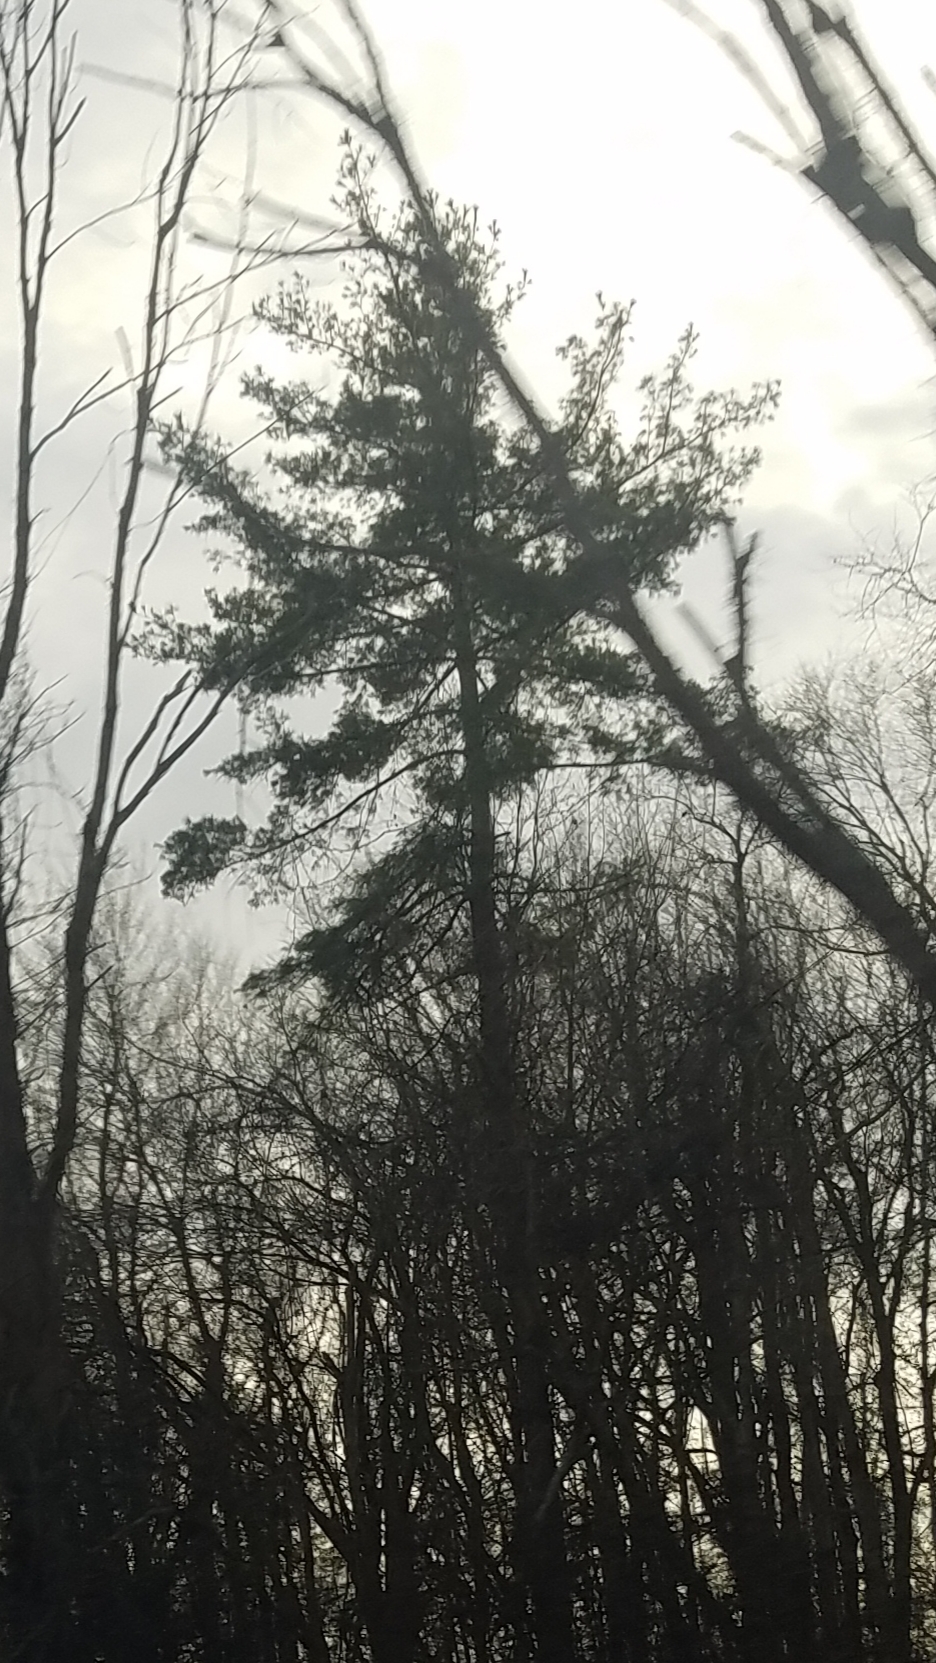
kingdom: Plantae
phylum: Tracheophyta
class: Pinopsida
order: Pinales
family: Pinaceae
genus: Pinus
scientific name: Pinus strobus
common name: Weymouth pine
